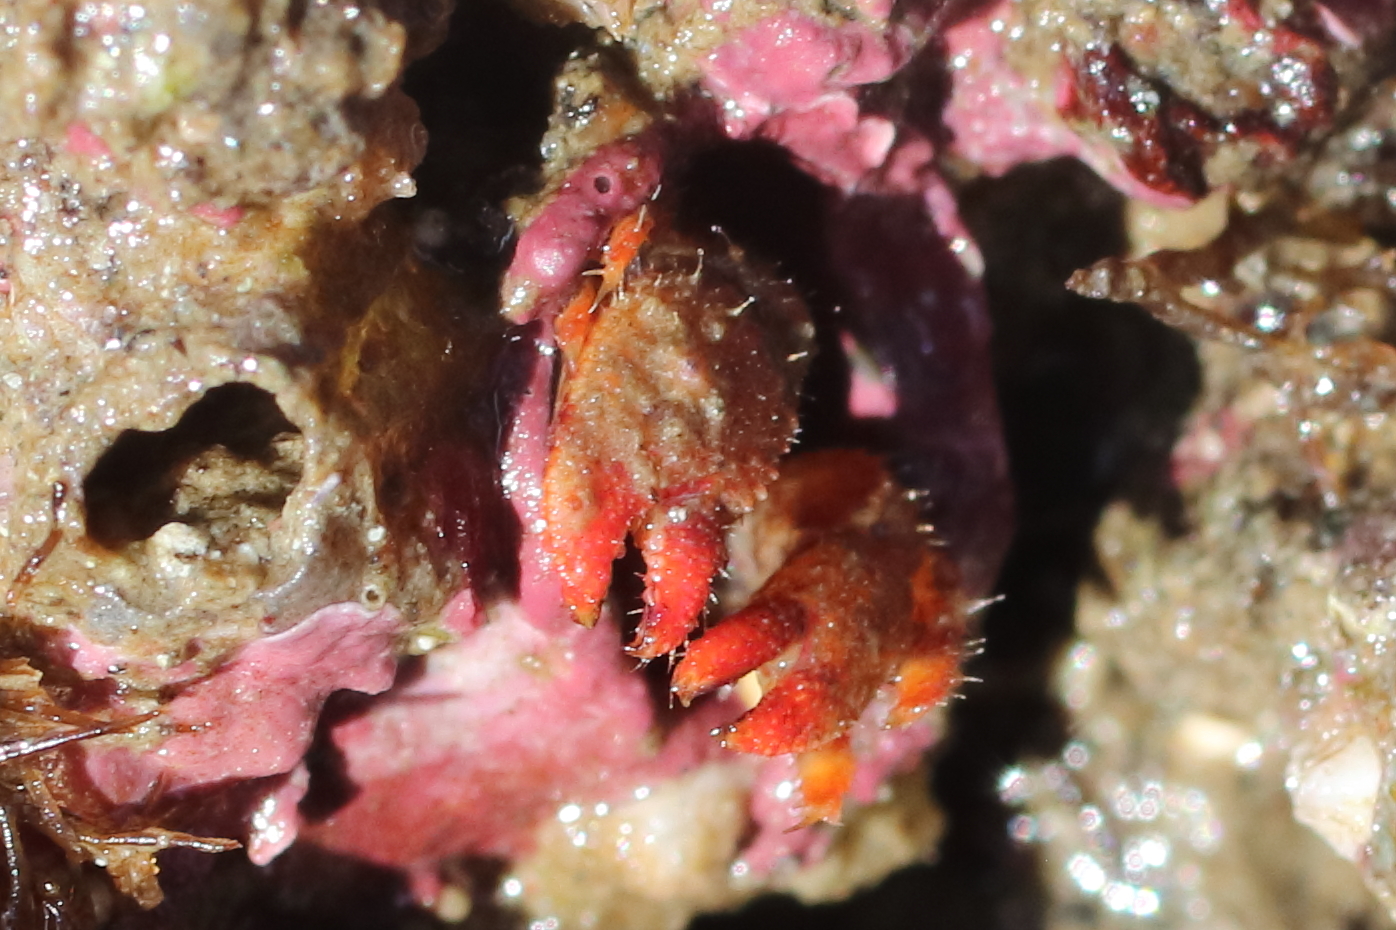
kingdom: Animalia
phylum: Arthropoda
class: Malacostraca
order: Decapoda
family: Paguridae
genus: Discorsopagurus
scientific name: Discorsopagurus schmitti
